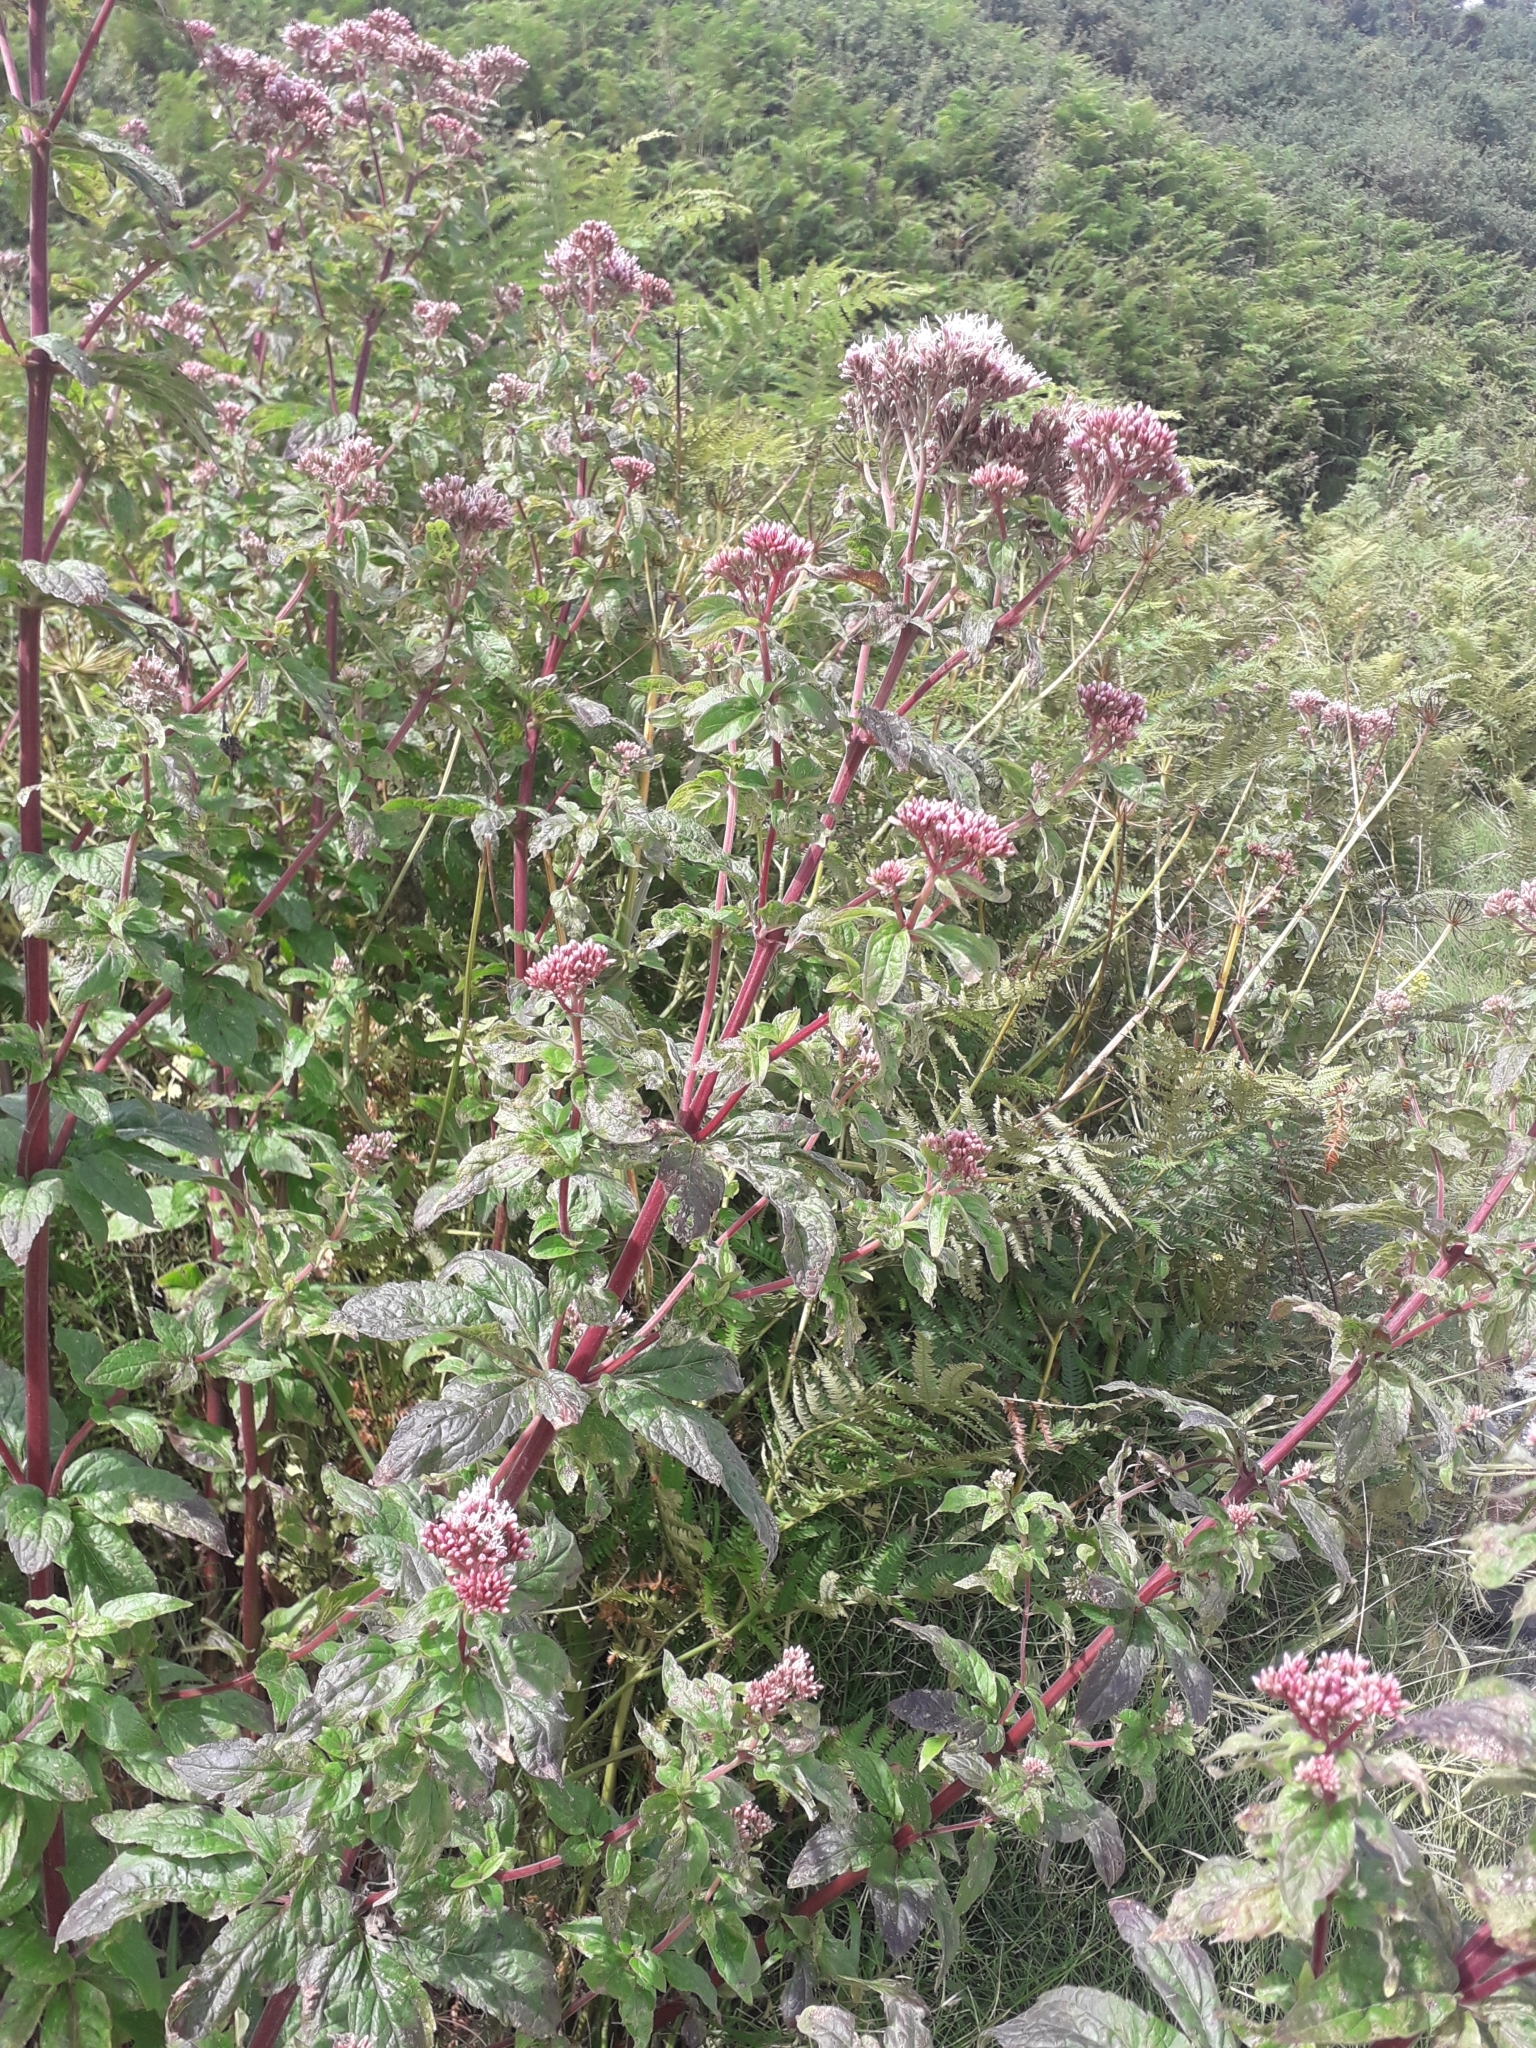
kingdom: Plantae
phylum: Tracheophyta
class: Magnoliopsida
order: Asterales
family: Asteraceae
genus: Eupatorium
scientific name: Eupatorium cannabinum
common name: Hemp-agrimony
